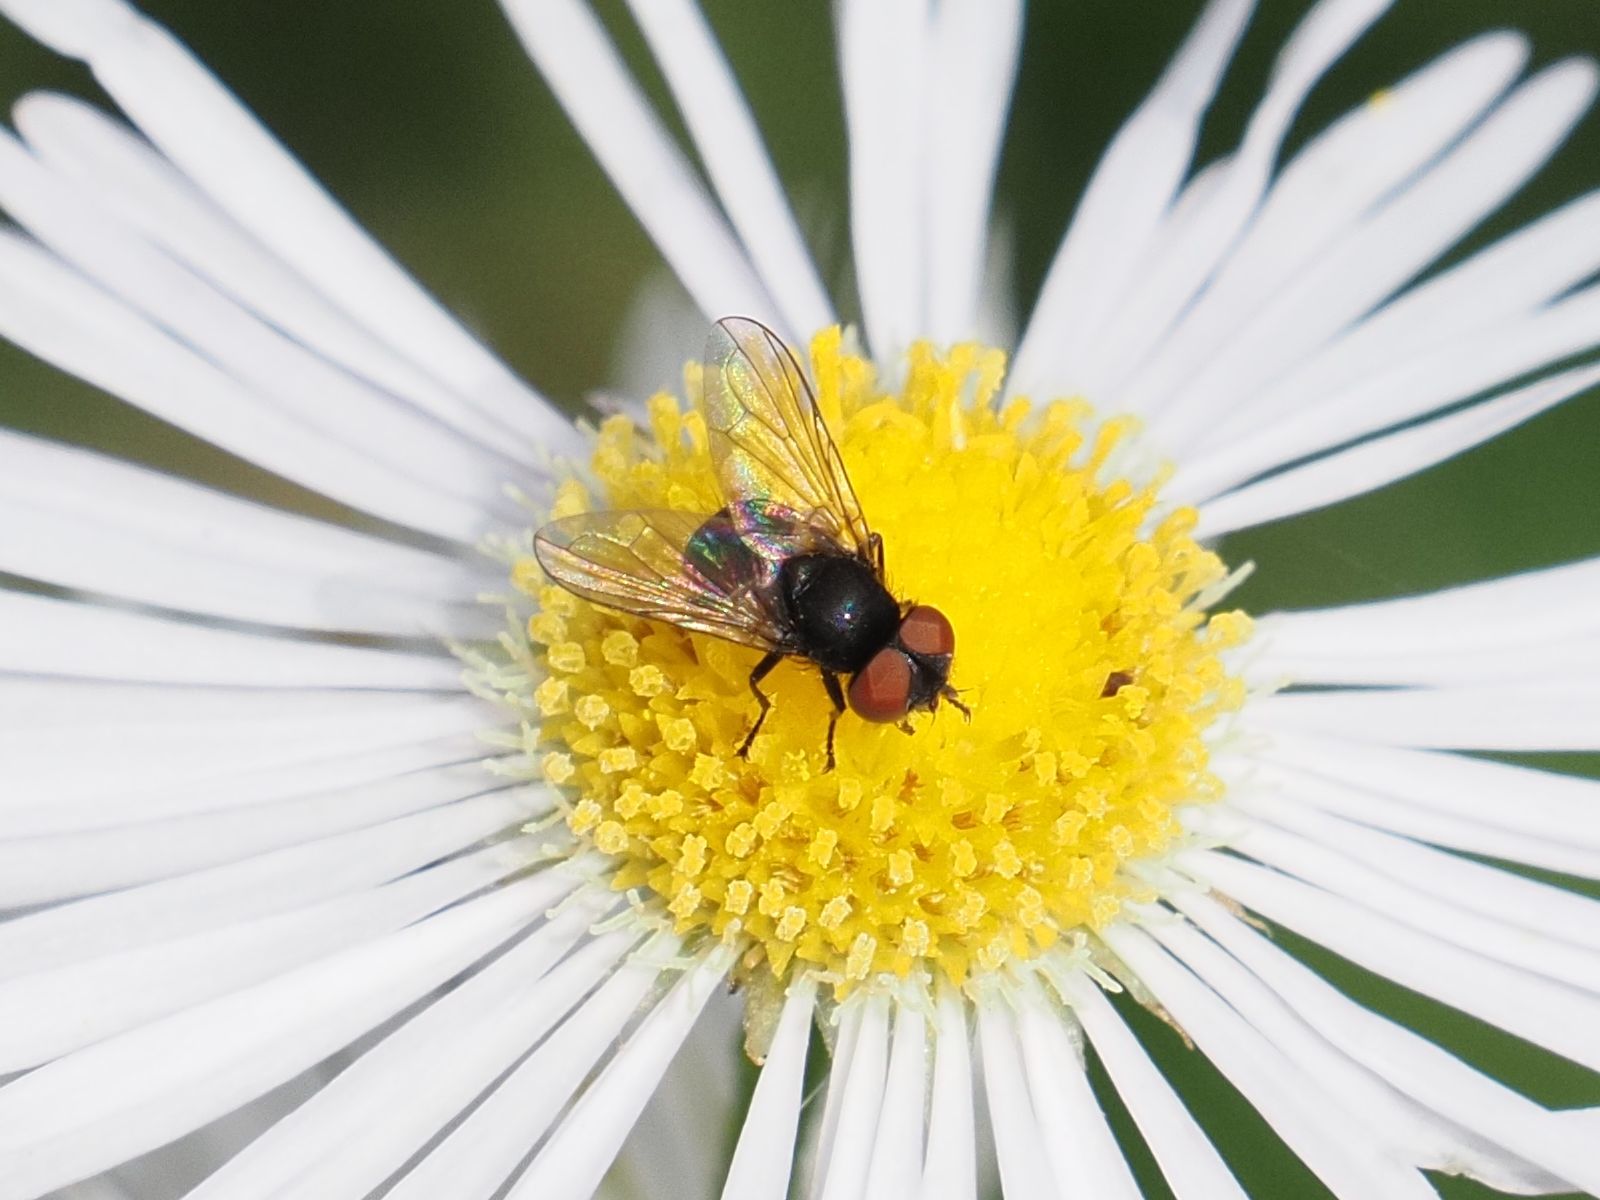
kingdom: Animalia
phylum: Arthropoda
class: Insecta
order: Diptera
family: Tachinidae
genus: Phasia
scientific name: Phasia barbifrons
